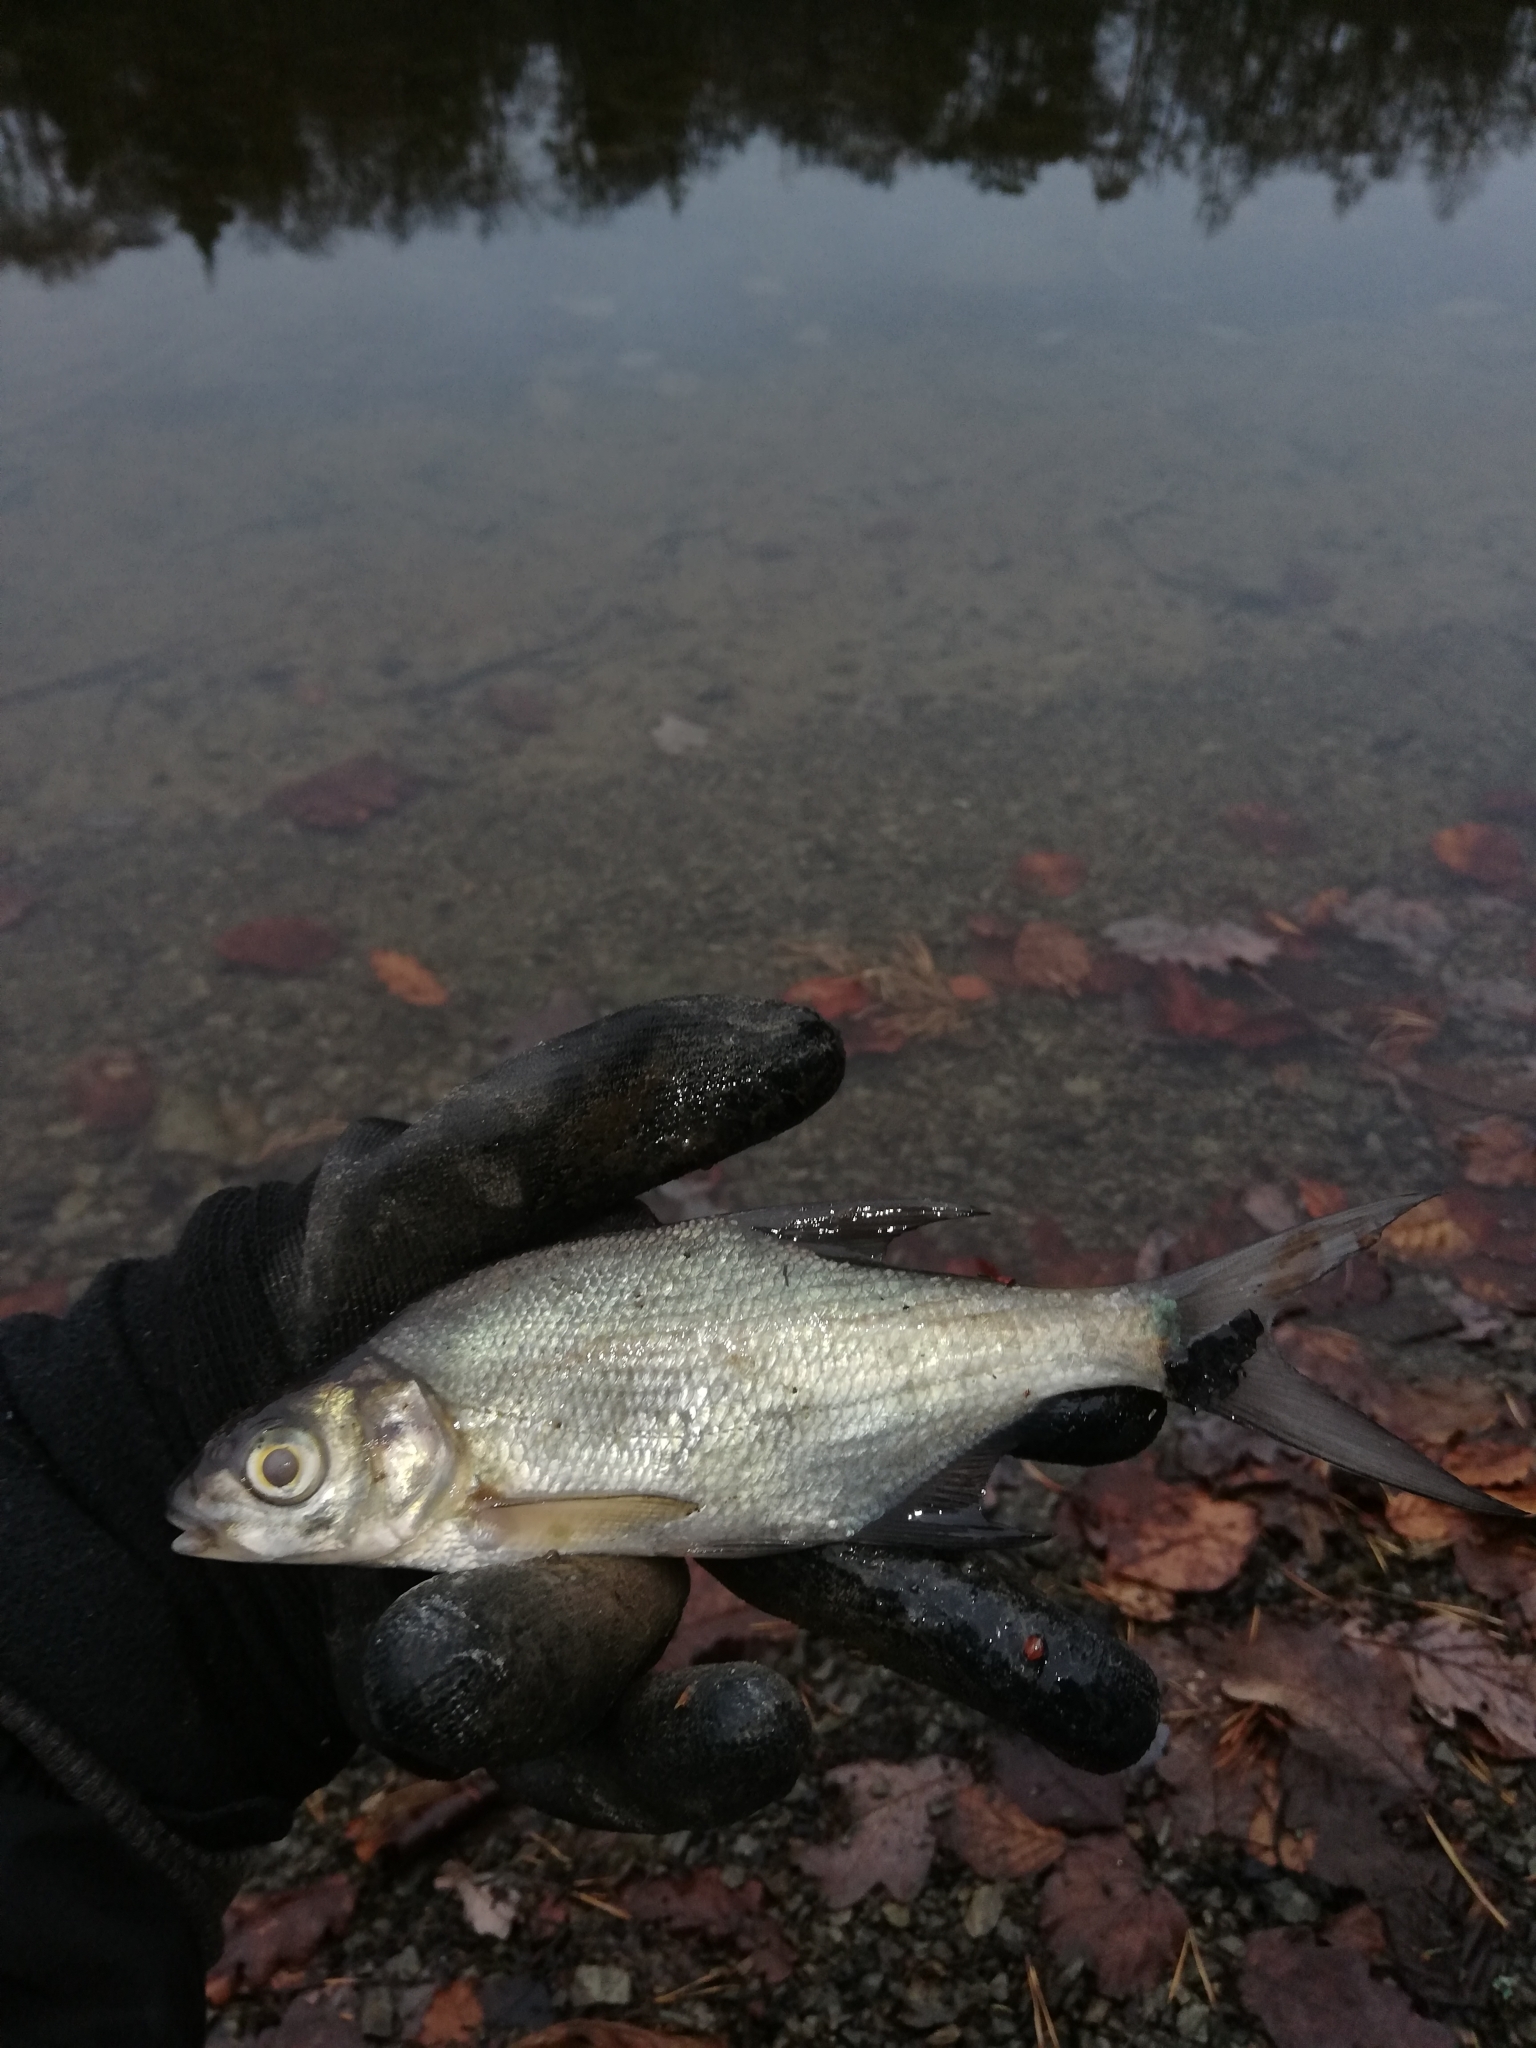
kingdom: Animalia
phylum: Chordata
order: Cypriniformes
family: Cyprinidae
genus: Abramis
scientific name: Abramis brama
